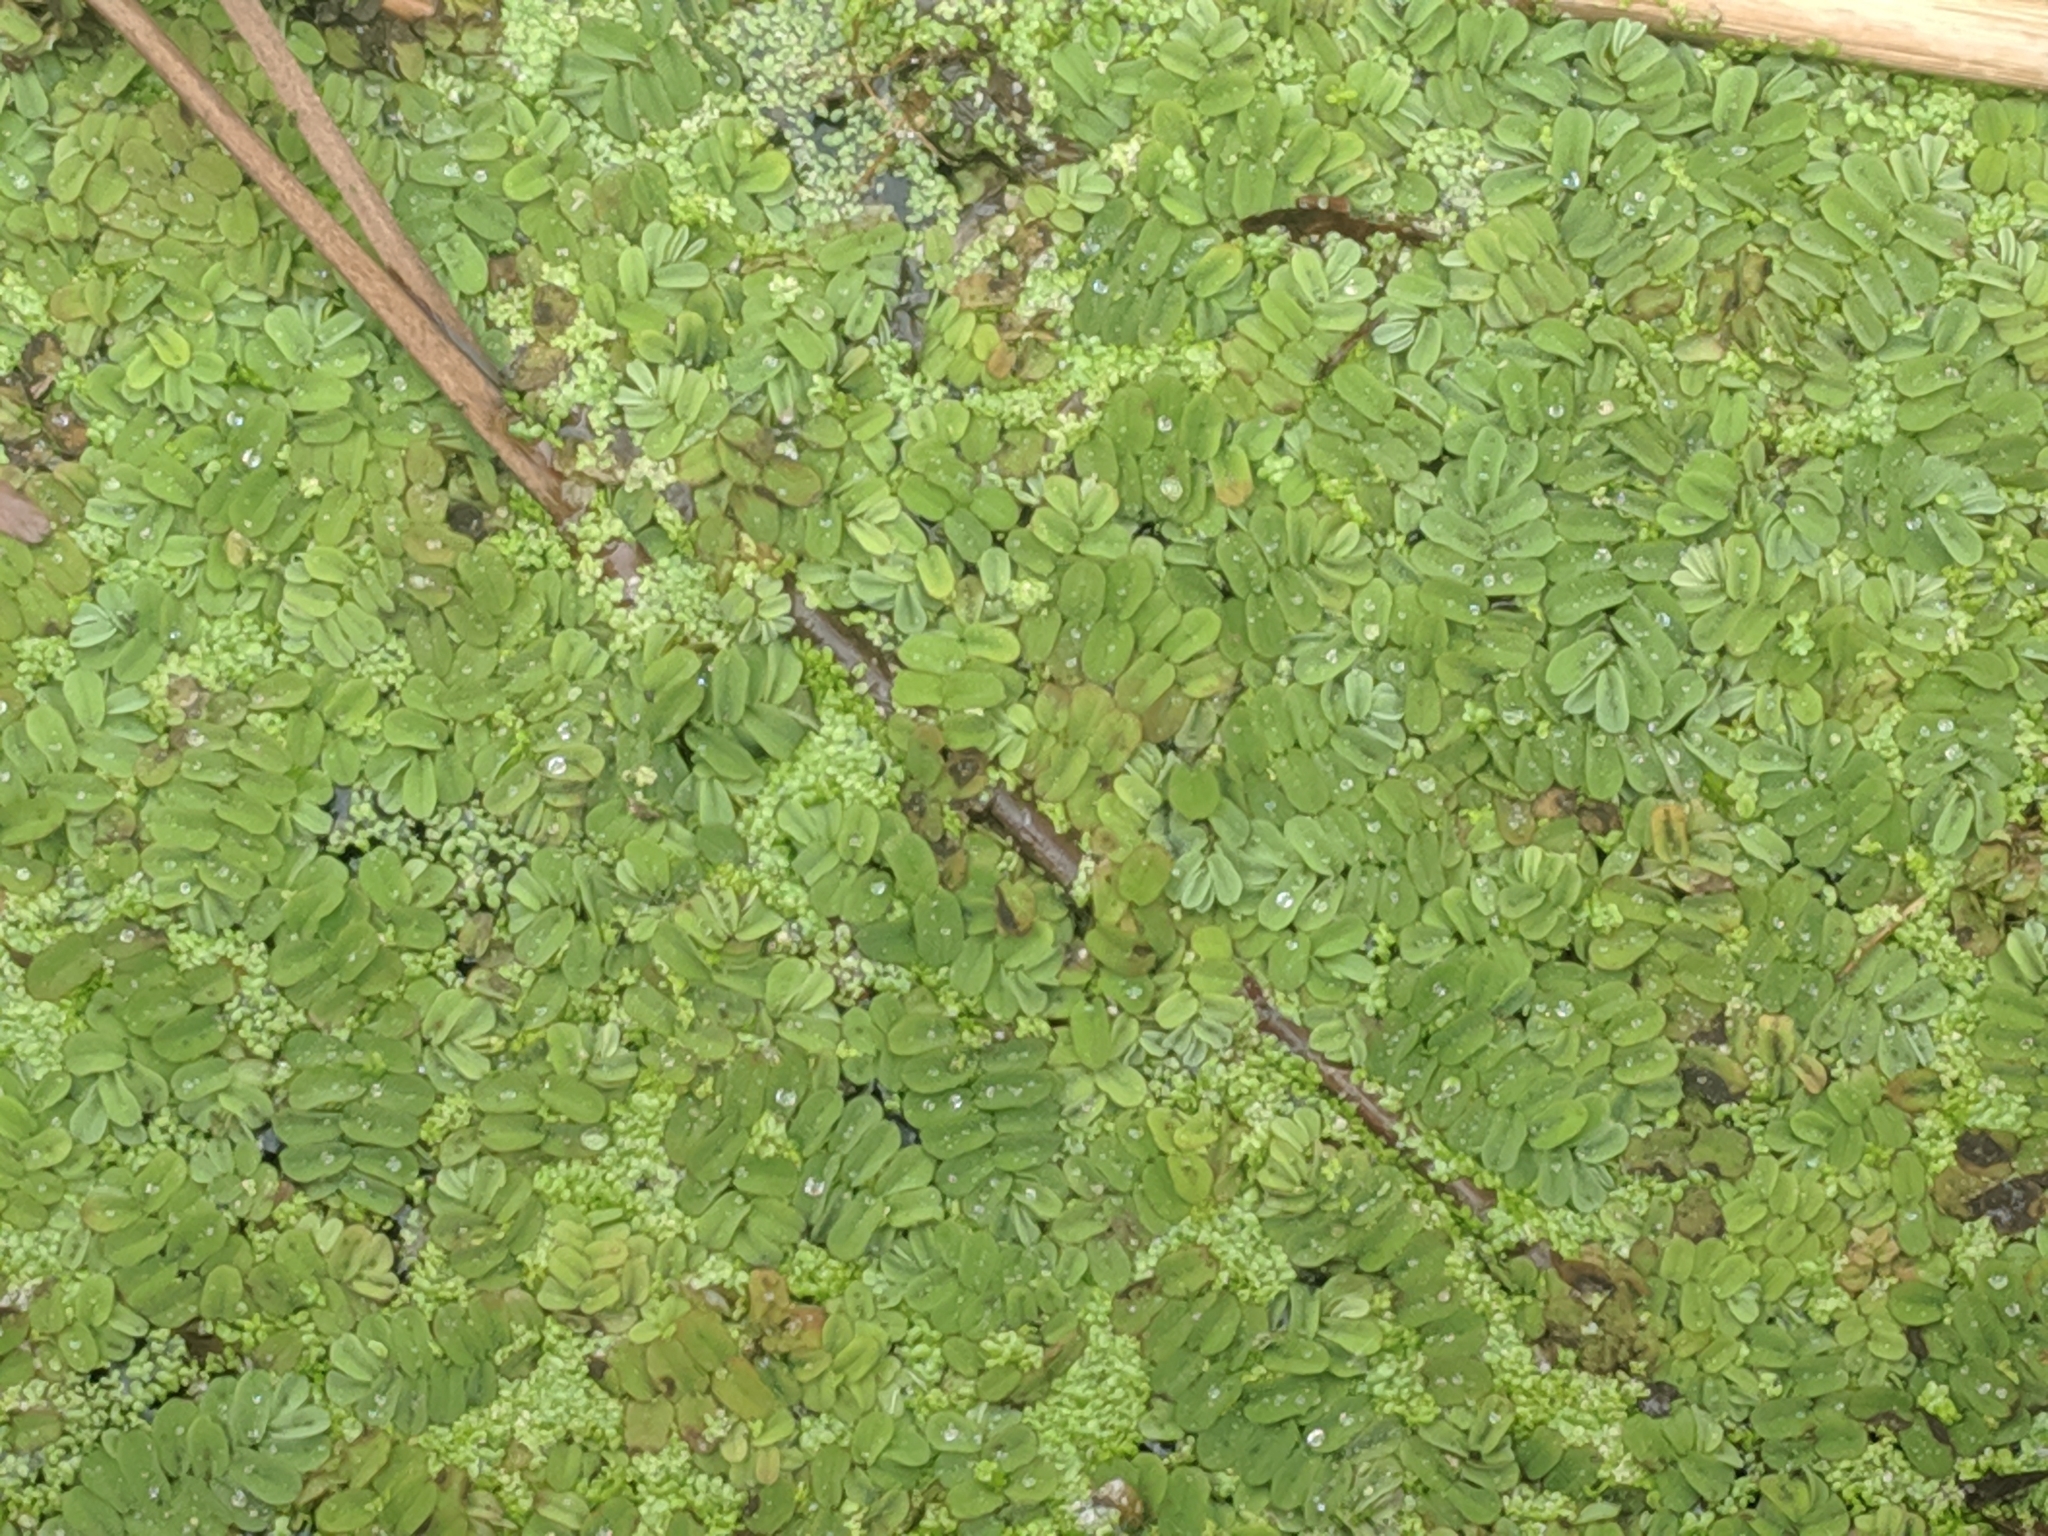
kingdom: Plantae
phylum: Tracheophyta
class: Polypodiopsida
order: Salviniales
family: Salviniaceae
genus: Salvinia
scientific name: Salvinia natans
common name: Floating fern
